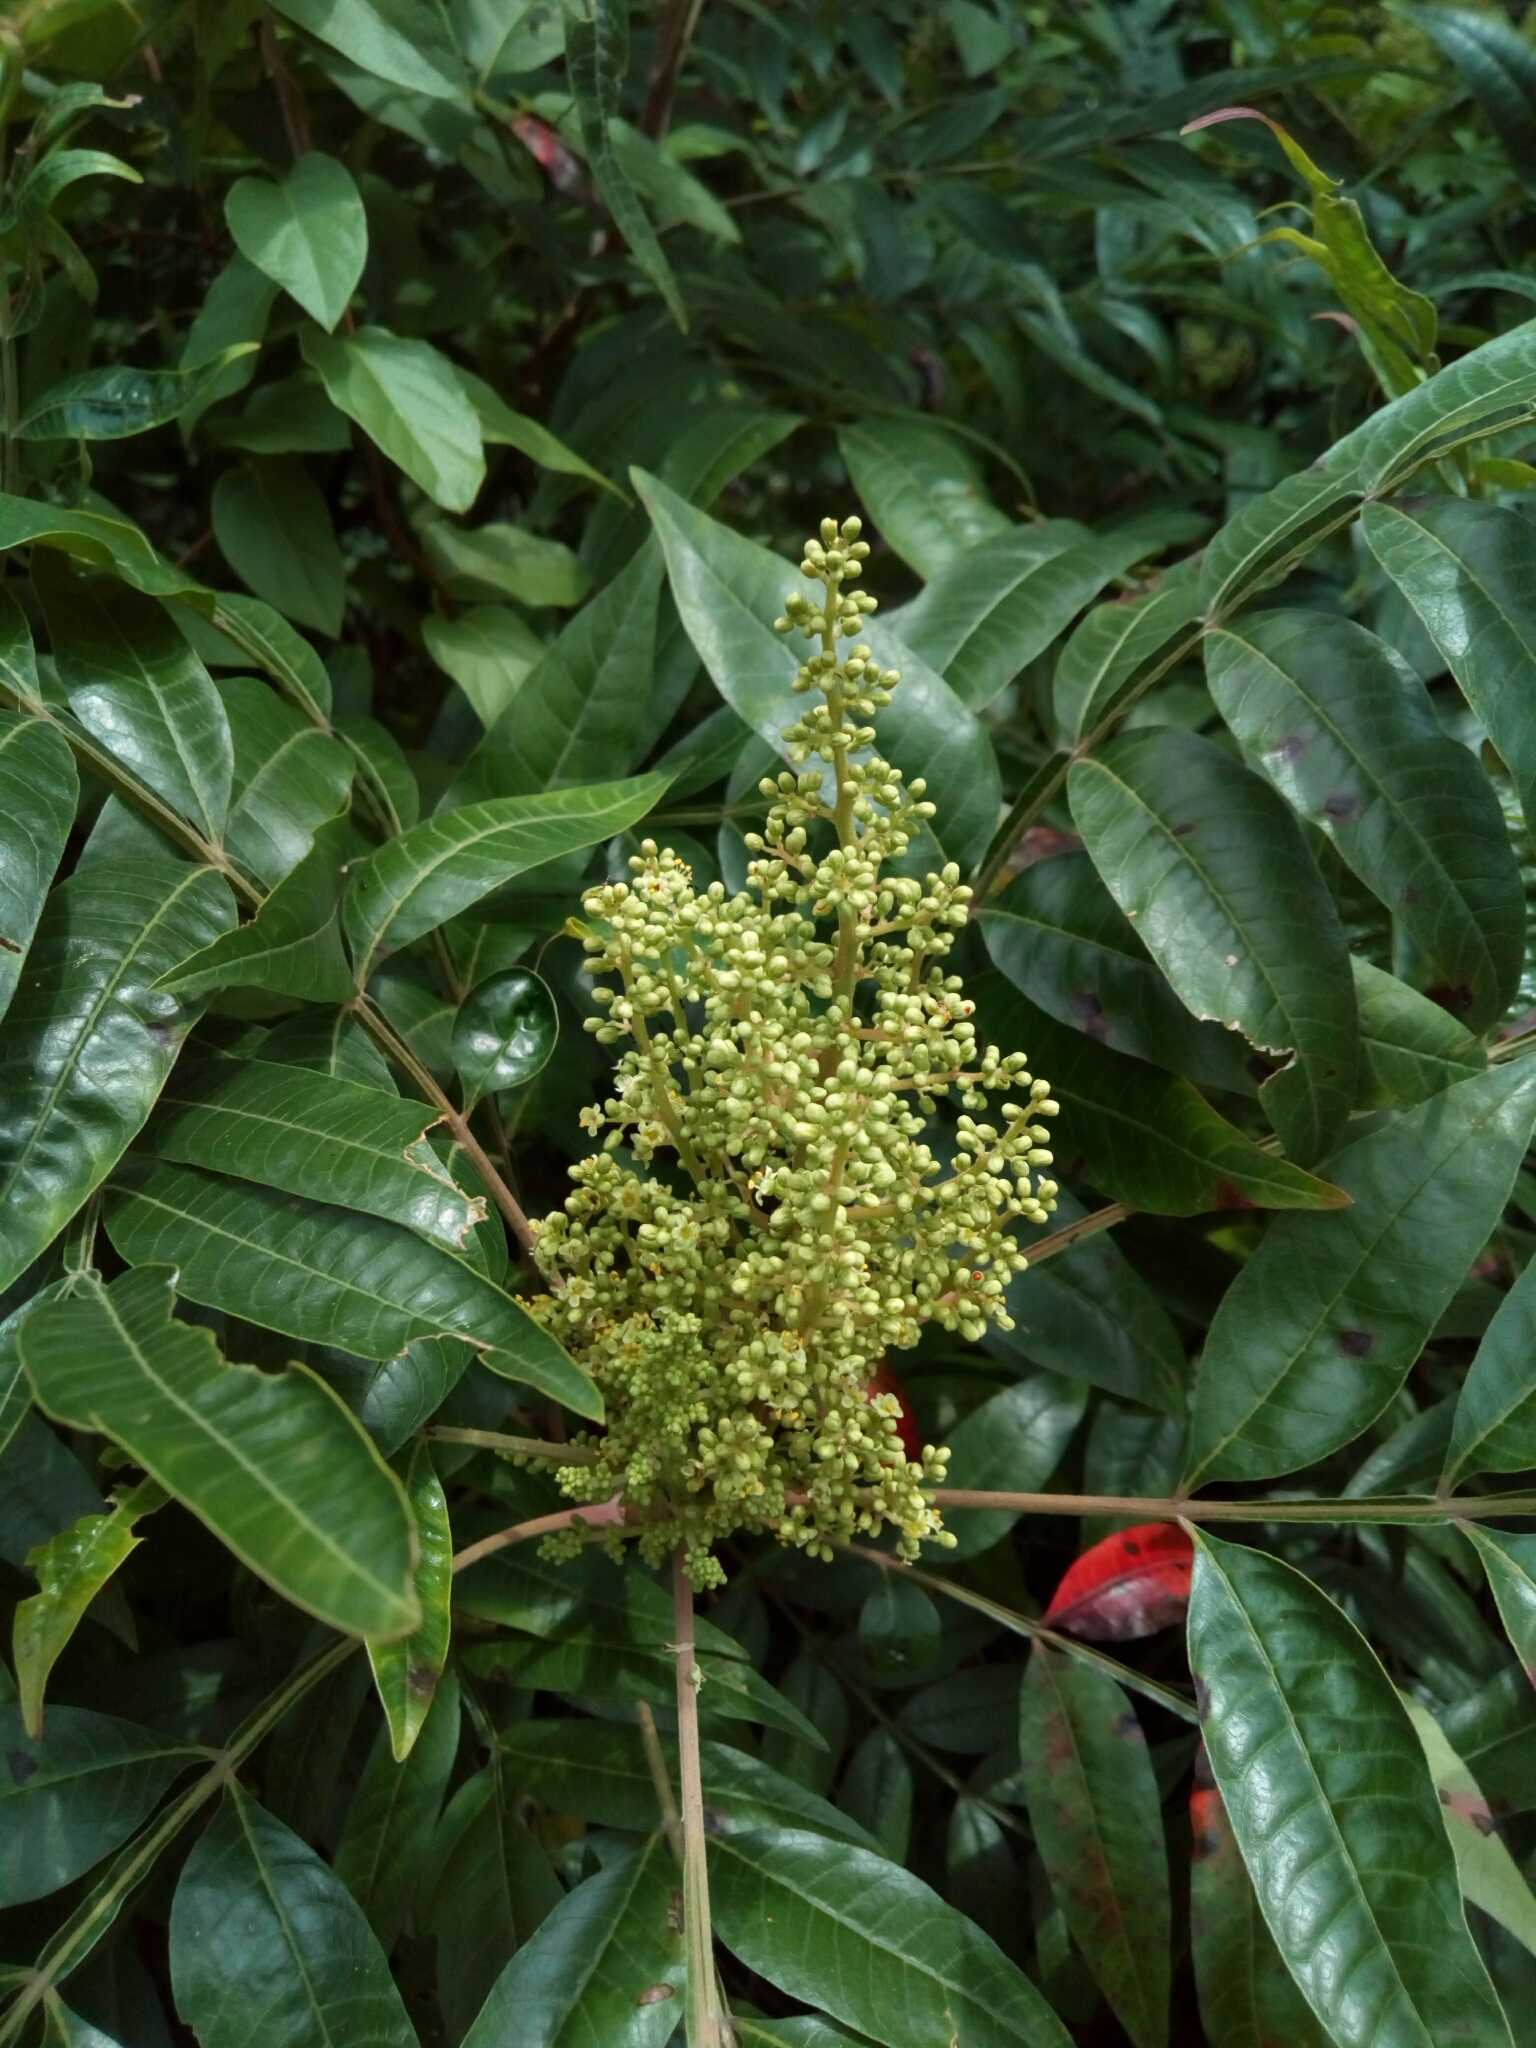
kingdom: Plantae
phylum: Tracheophyta
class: Magnoliopsida
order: Sapindales
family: Anacardiaceae
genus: Rhus
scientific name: Rhus copallina
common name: Shining sumac
